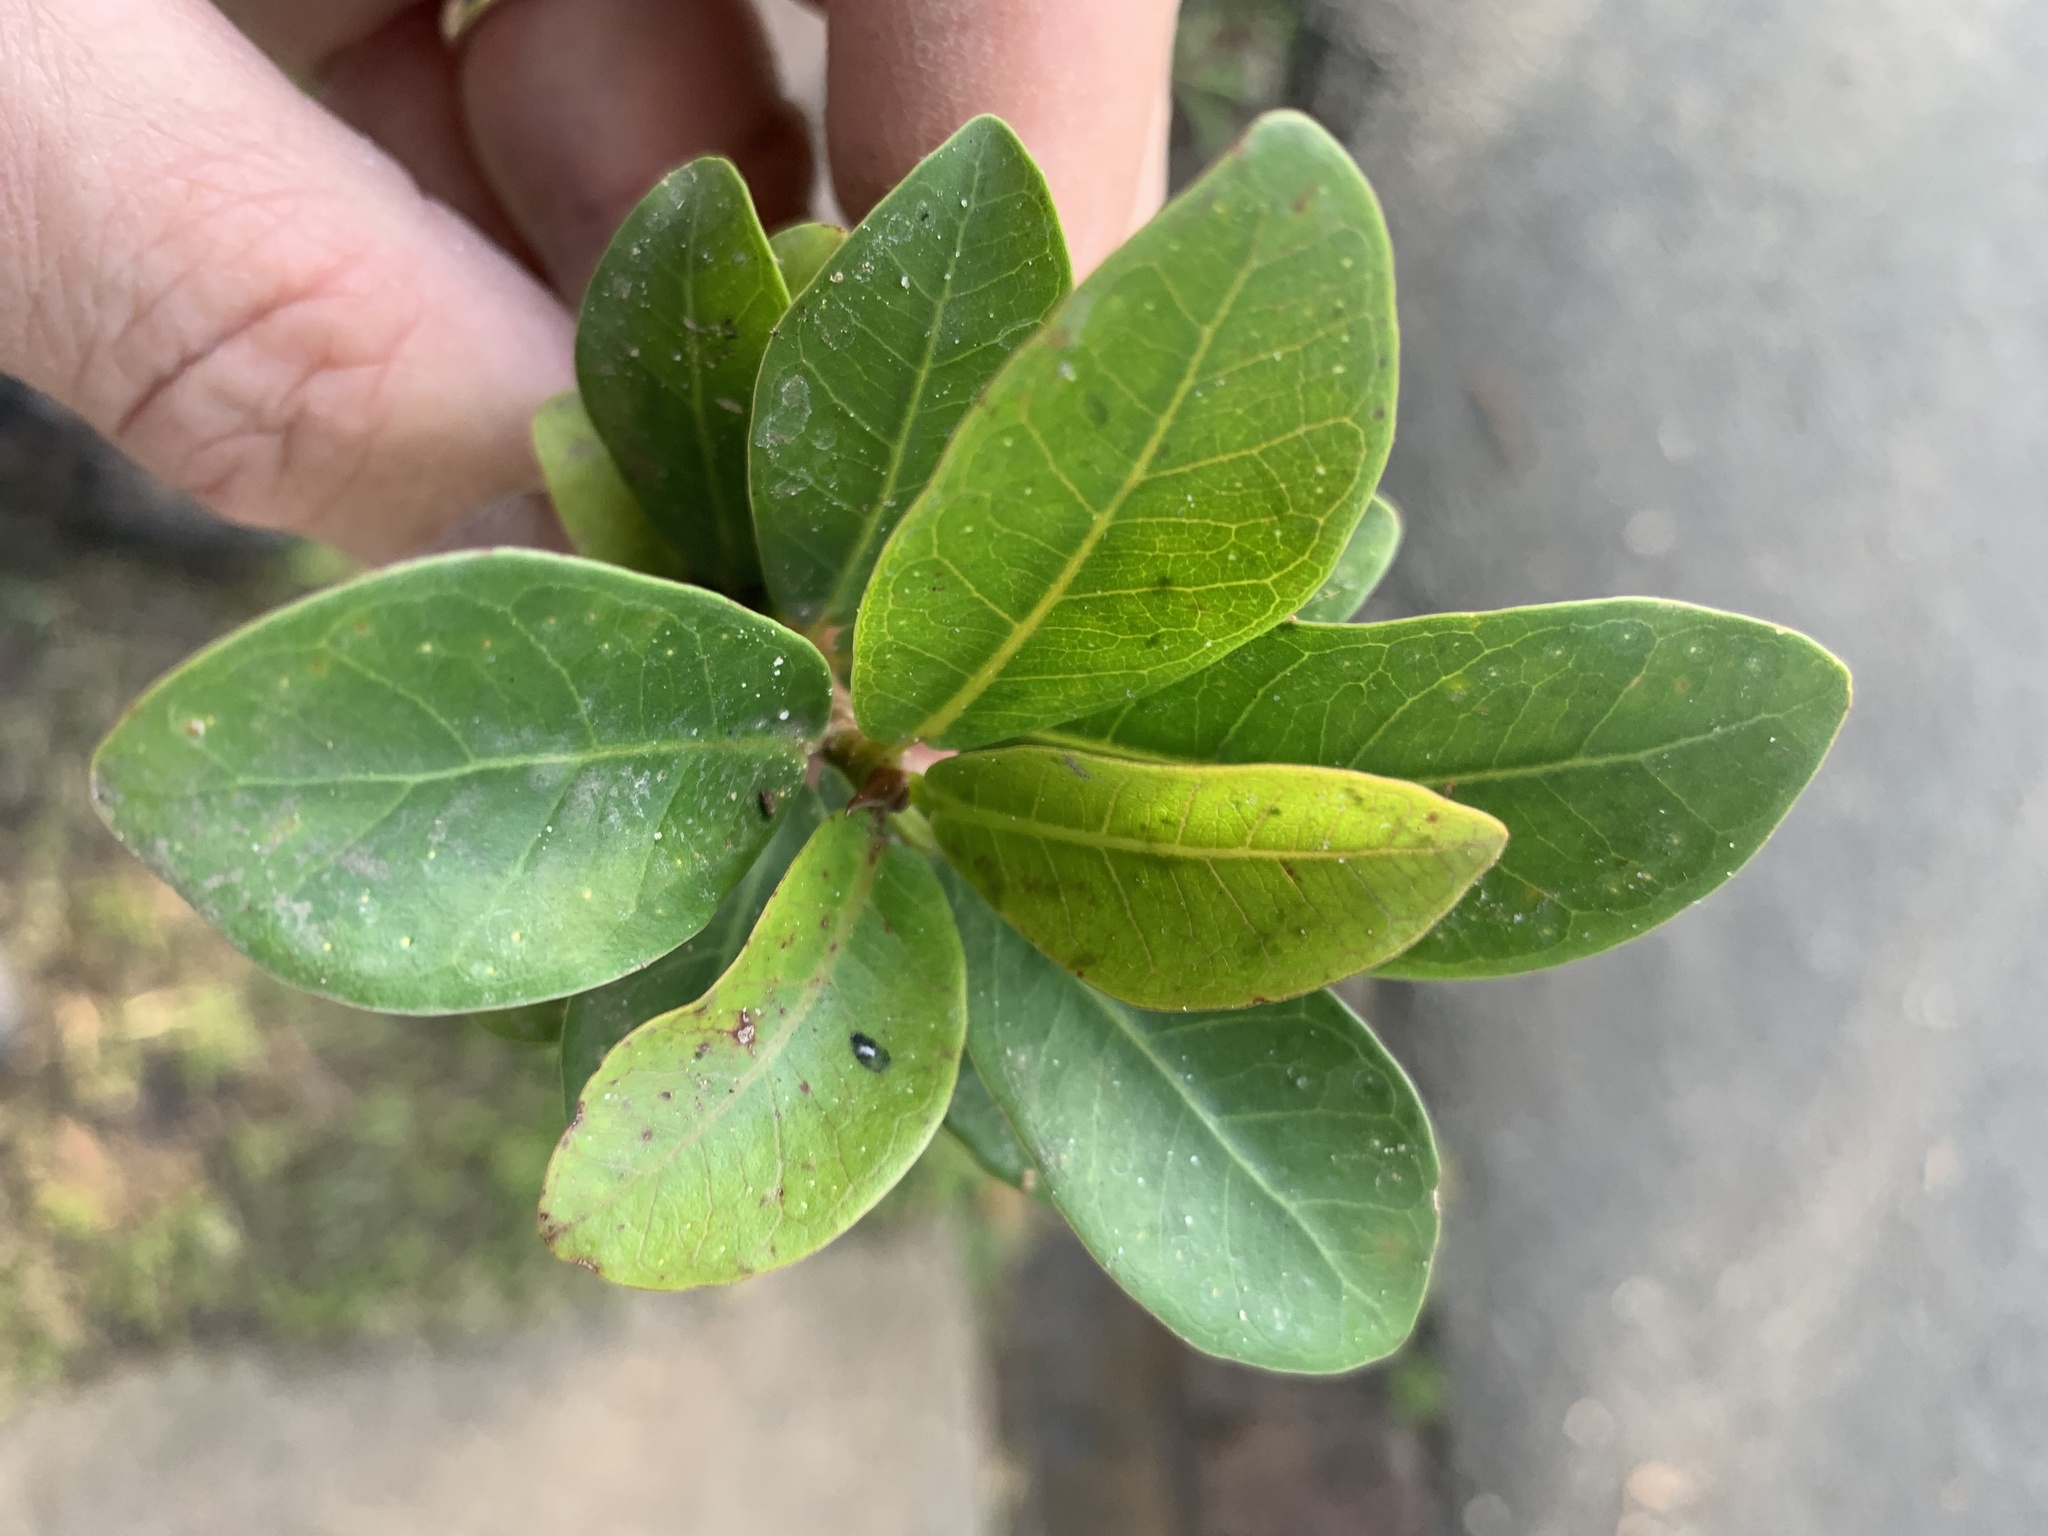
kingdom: Plantae
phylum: Tracheophyta
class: Magnoliopsida
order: Rosales
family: Moraceae
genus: Ficus
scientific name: Ficus thonningii
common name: Fig
